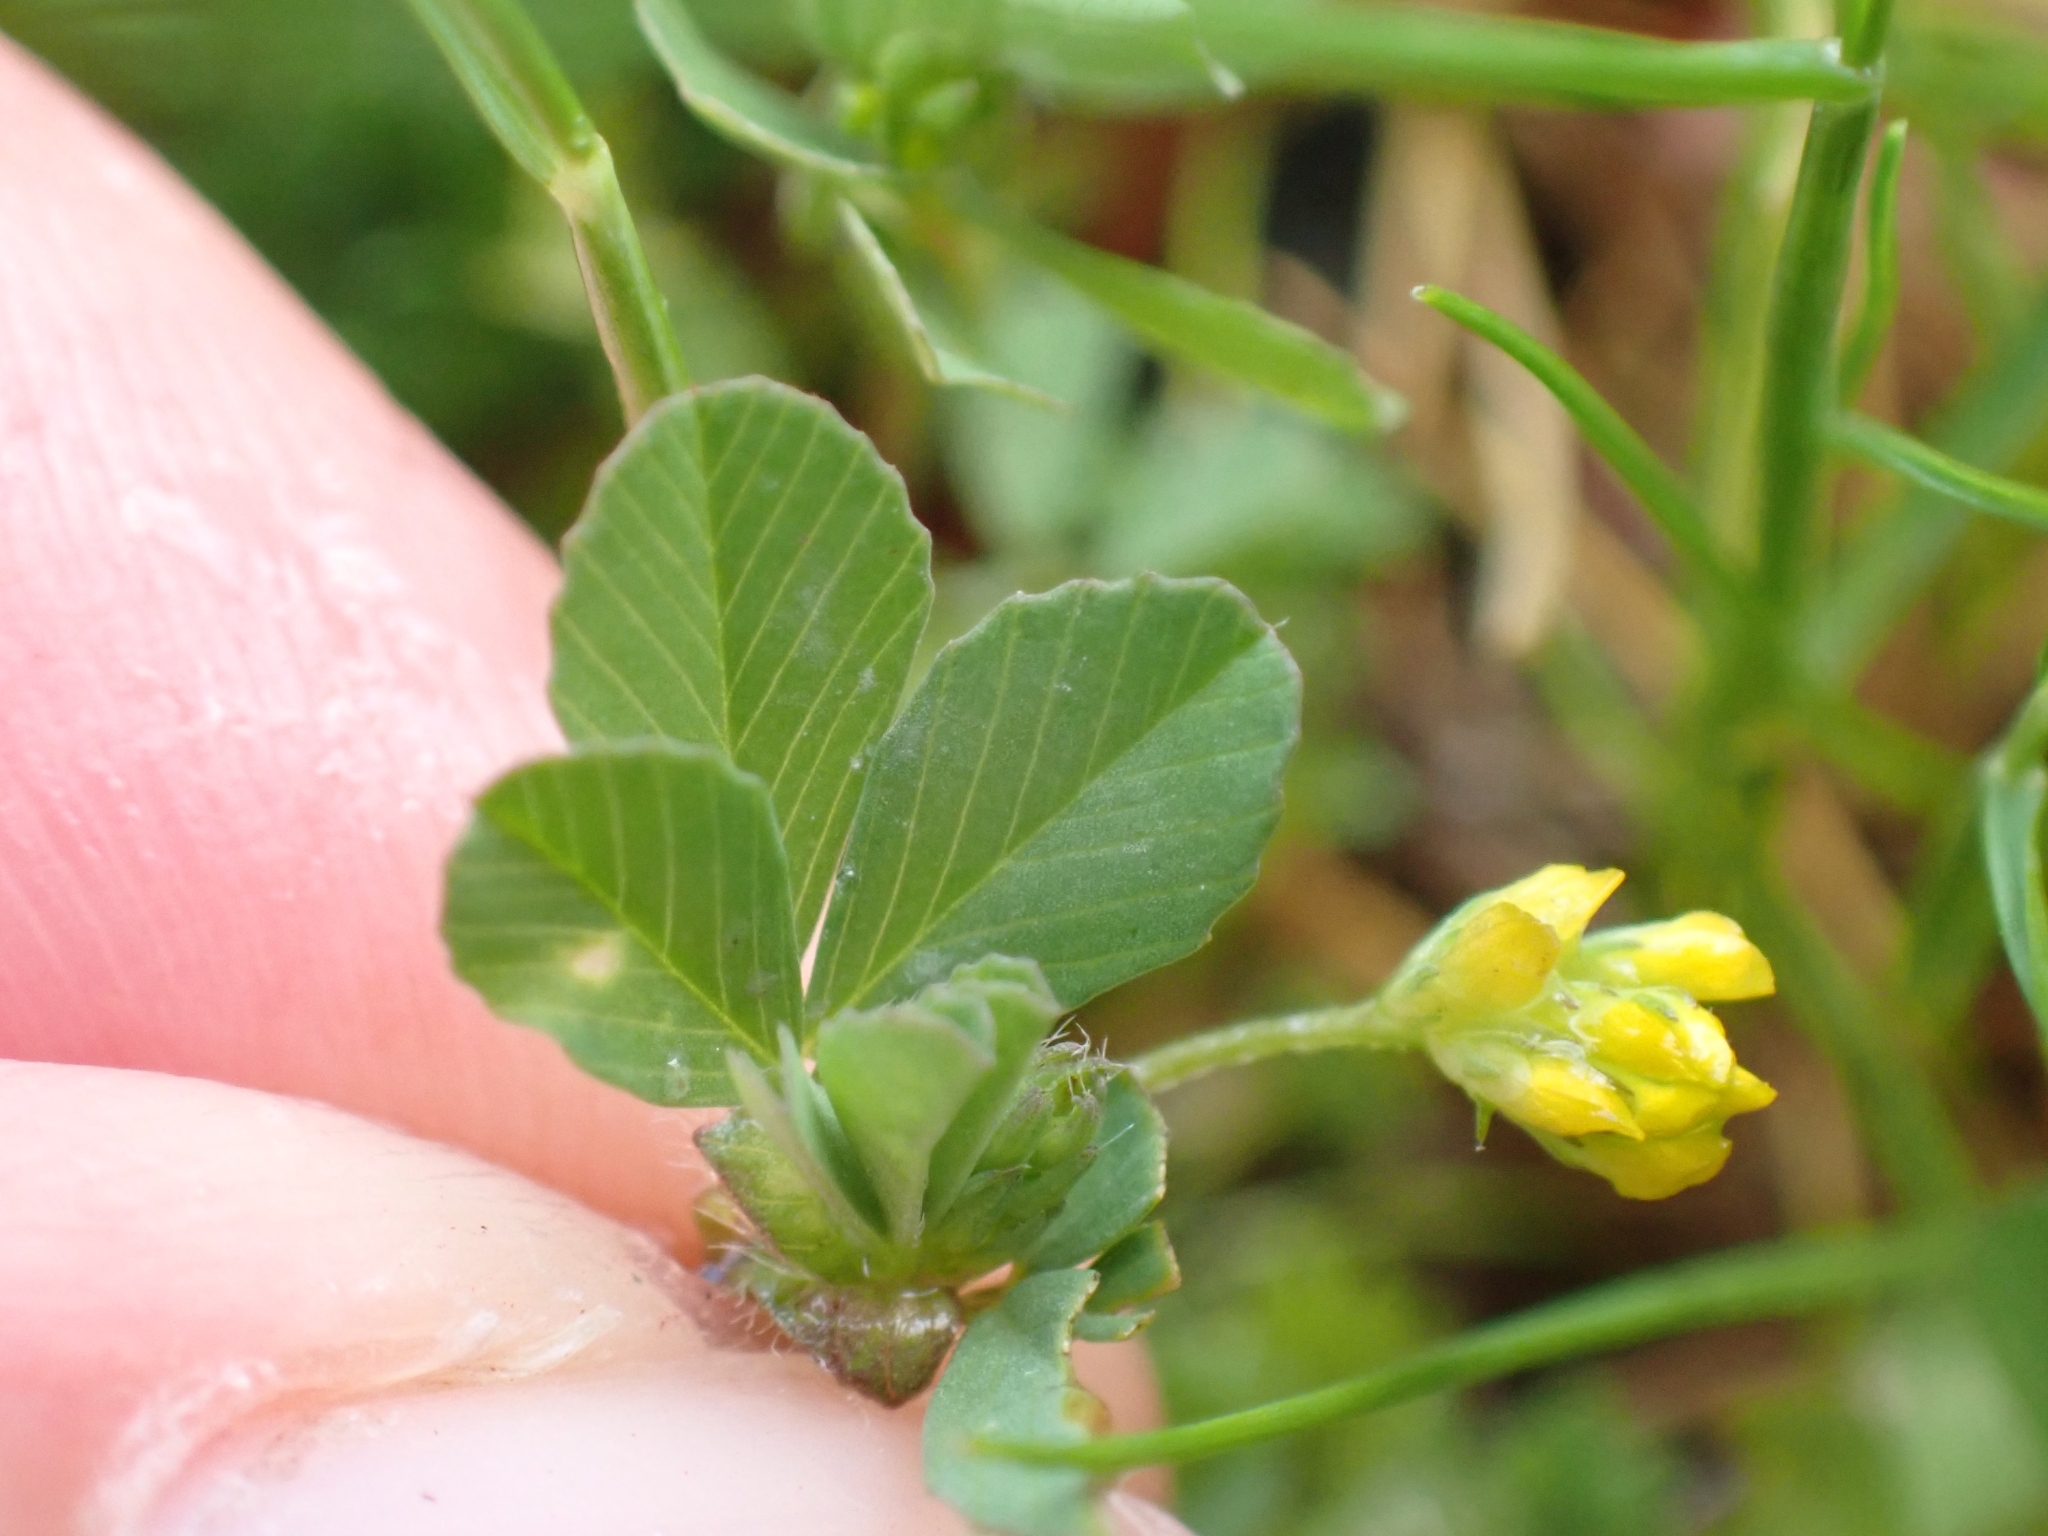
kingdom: Plantae
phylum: Tracheophyta
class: Magnoliopsida
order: Fabales
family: Fabaceae
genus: Trifolium
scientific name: Trifolium dubium
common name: Suckling clover
